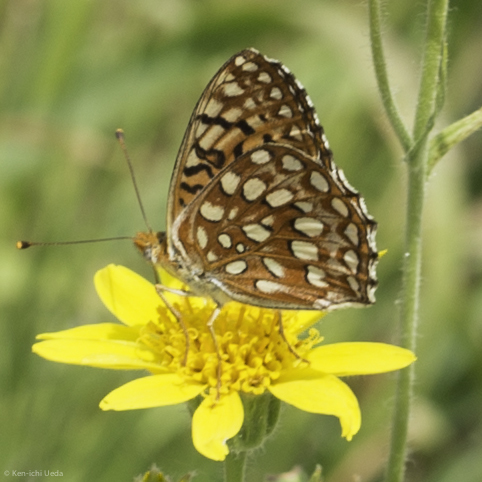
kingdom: Animalia
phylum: Arthropoda
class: Insecta
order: Lepidoptera
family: Nymphalidae
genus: Speyeria
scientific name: Speyeria atlantis
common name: Atlantis fritillary
